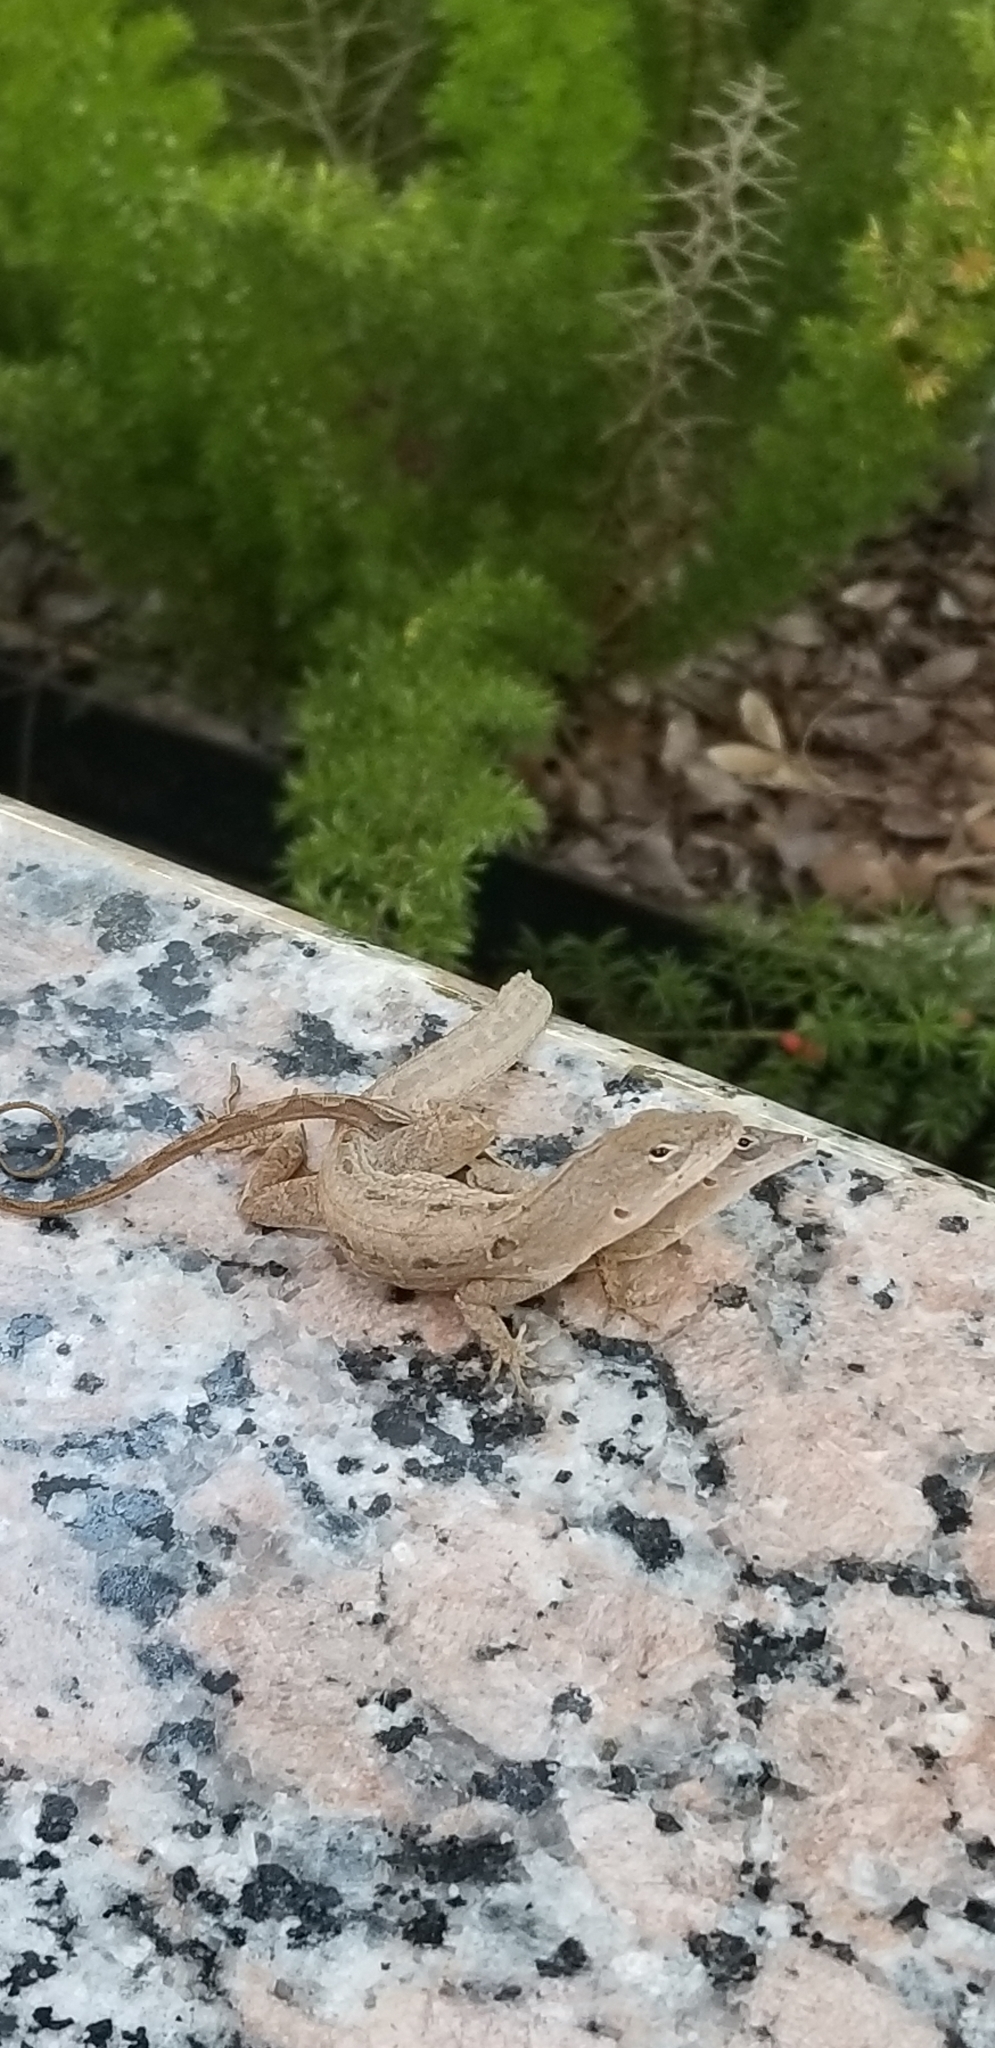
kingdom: Animalia
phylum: Chordata
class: Squamata
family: Dactyloidae
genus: Anolis
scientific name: Anolis sagrei
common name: Brown anole
